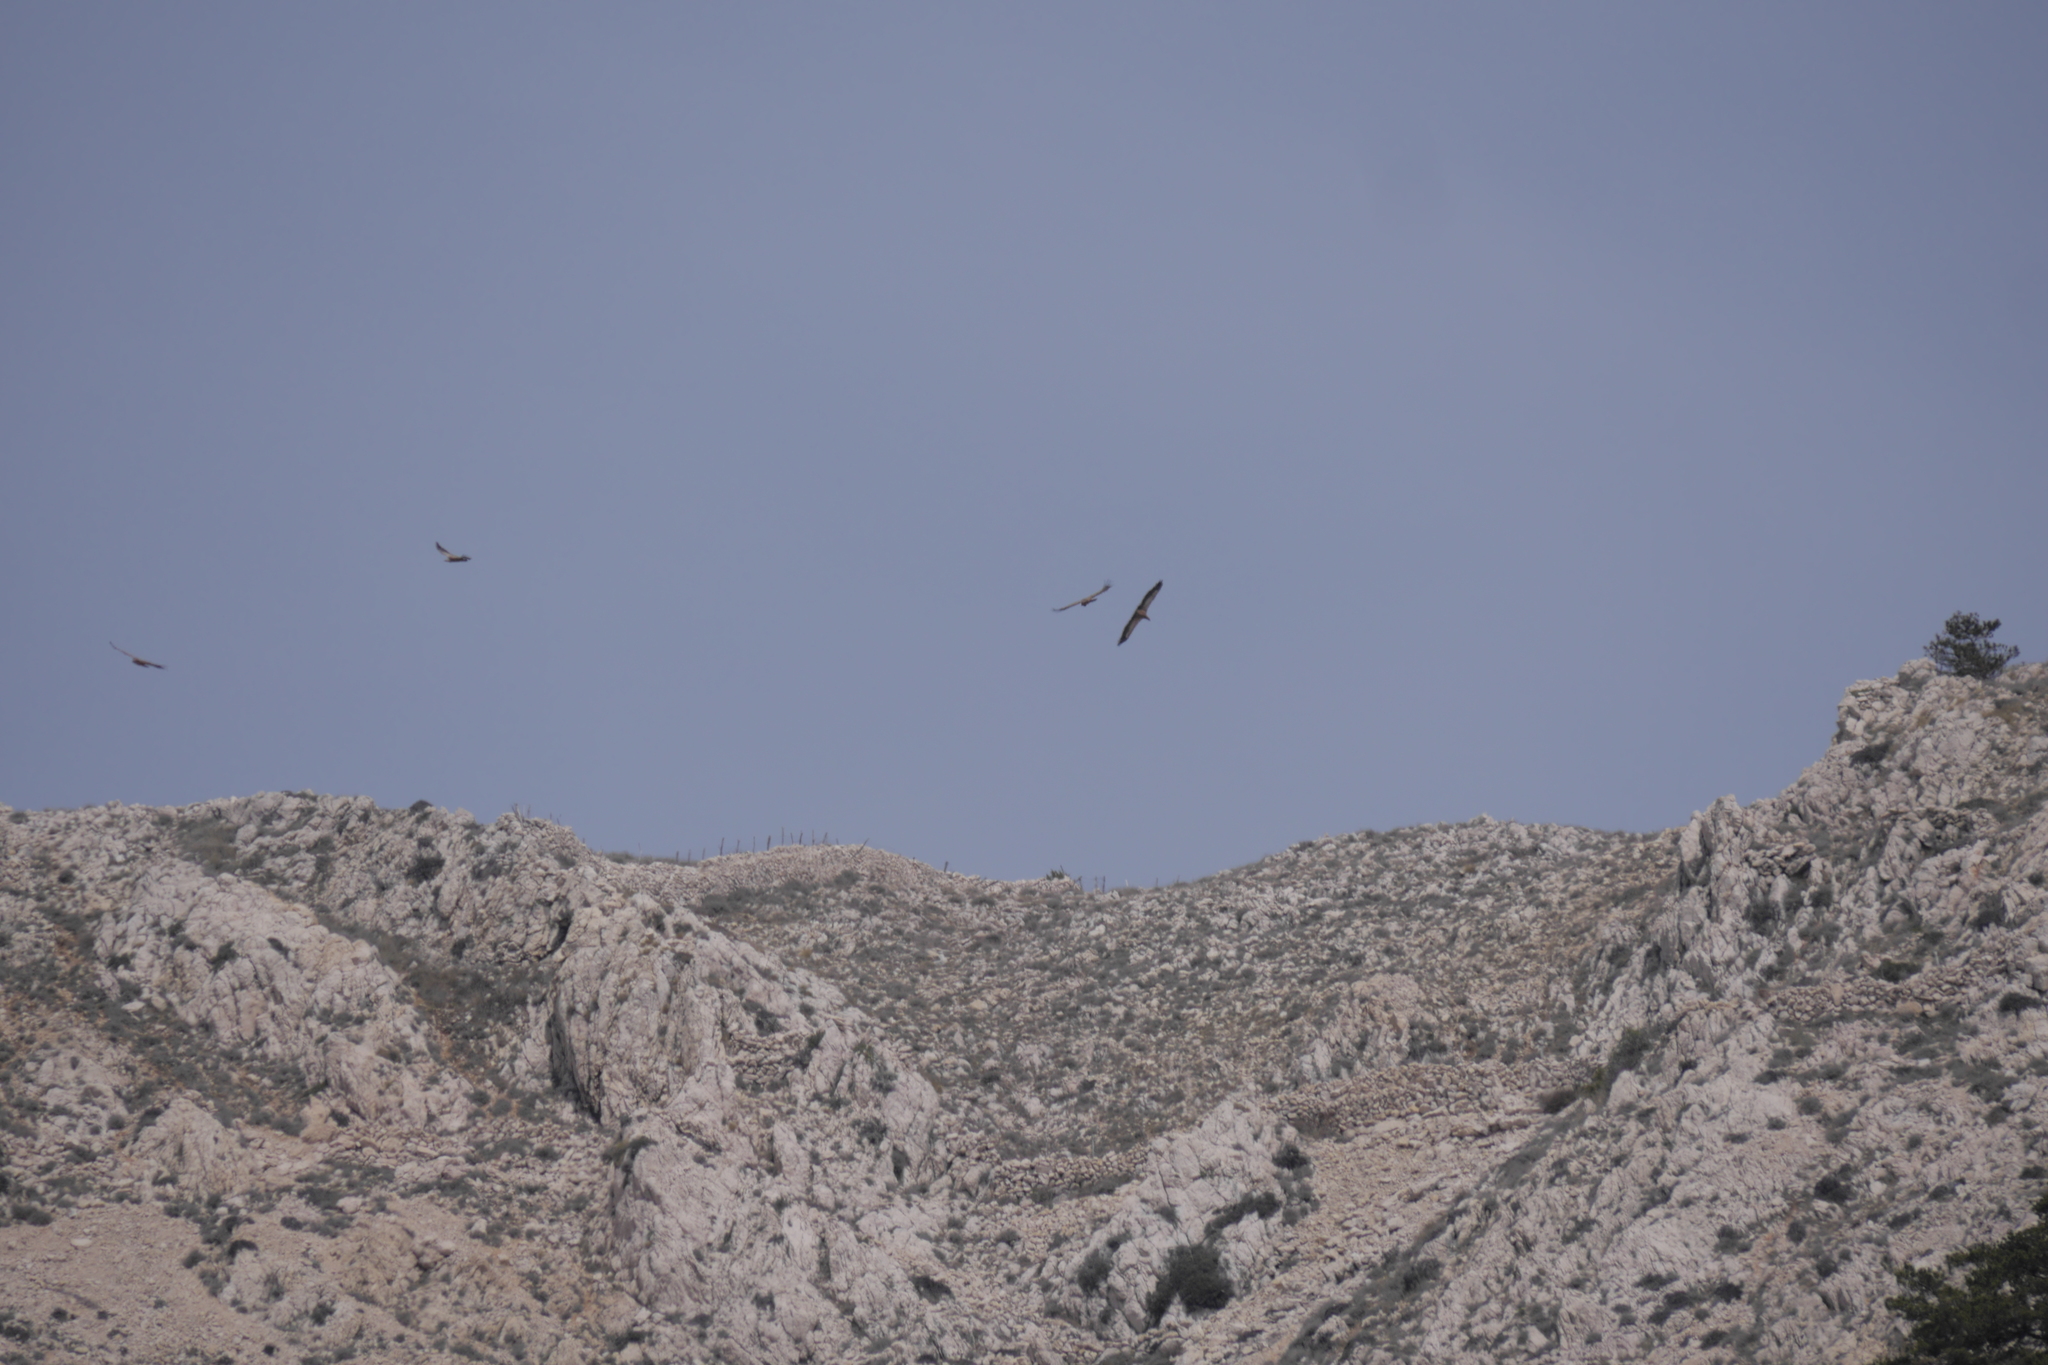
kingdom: Animalia
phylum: Chordata
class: Aves
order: Accipitriformes
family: Accipitridae
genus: Gyps
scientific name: Gyps fulvus
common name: Griffon vulture
